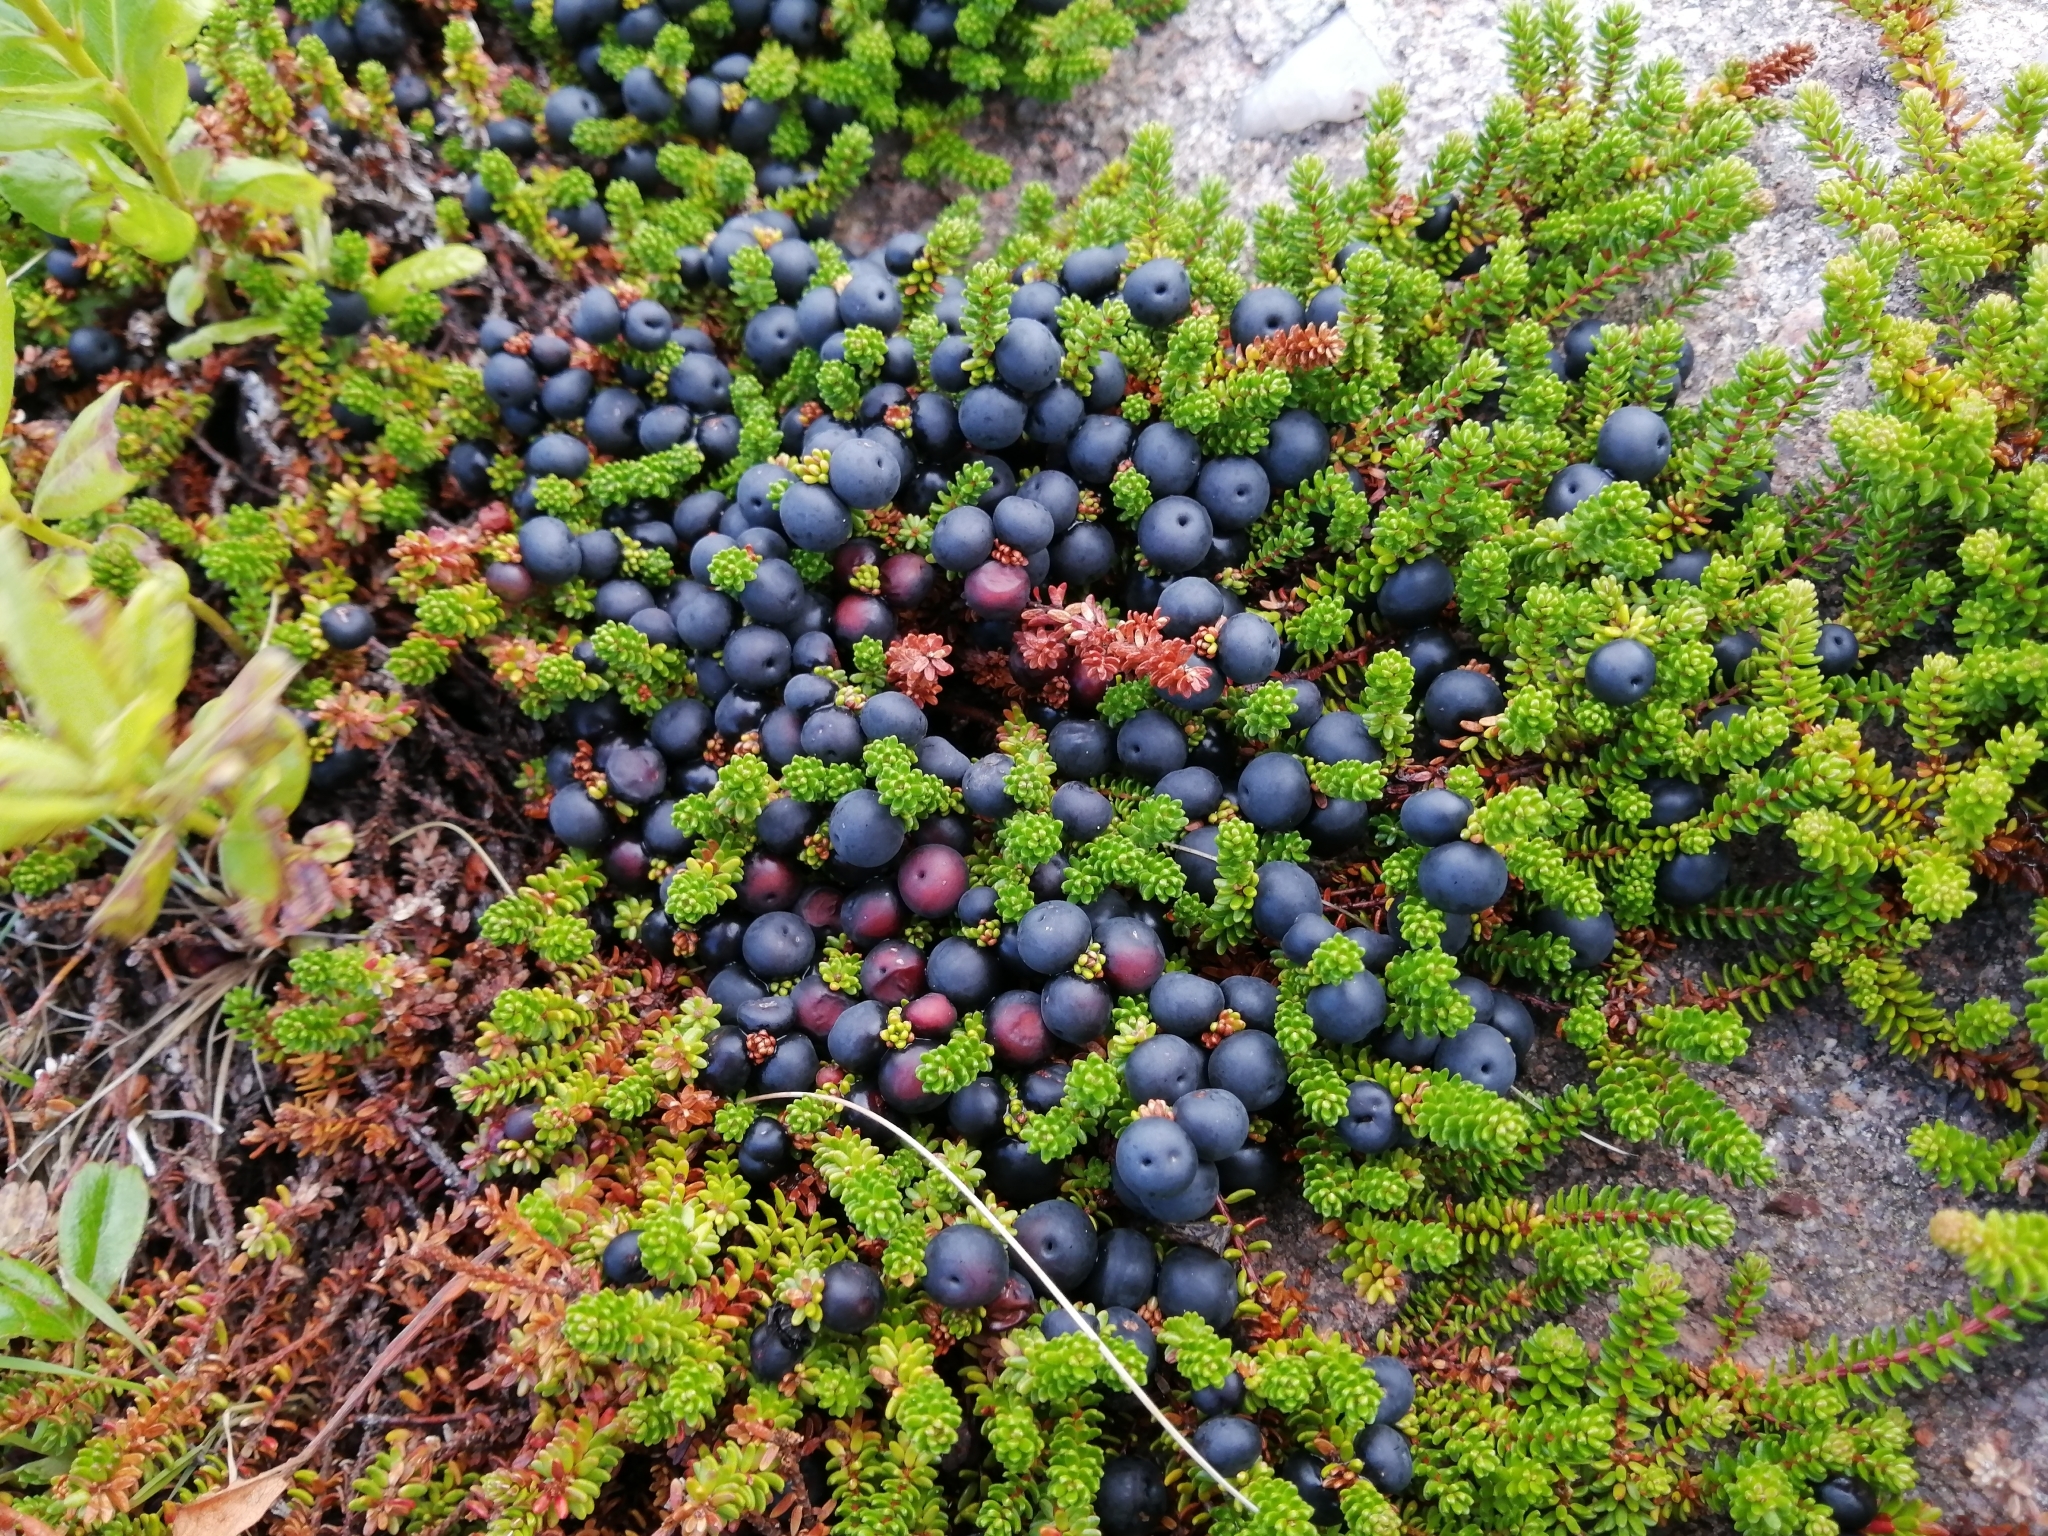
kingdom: Plantae
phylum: Tracheophyta
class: Magnoliopsida
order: Ericales
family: Ericaceae
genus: Empetrum
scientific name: Empetrum nigrum
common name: Black crowberry
